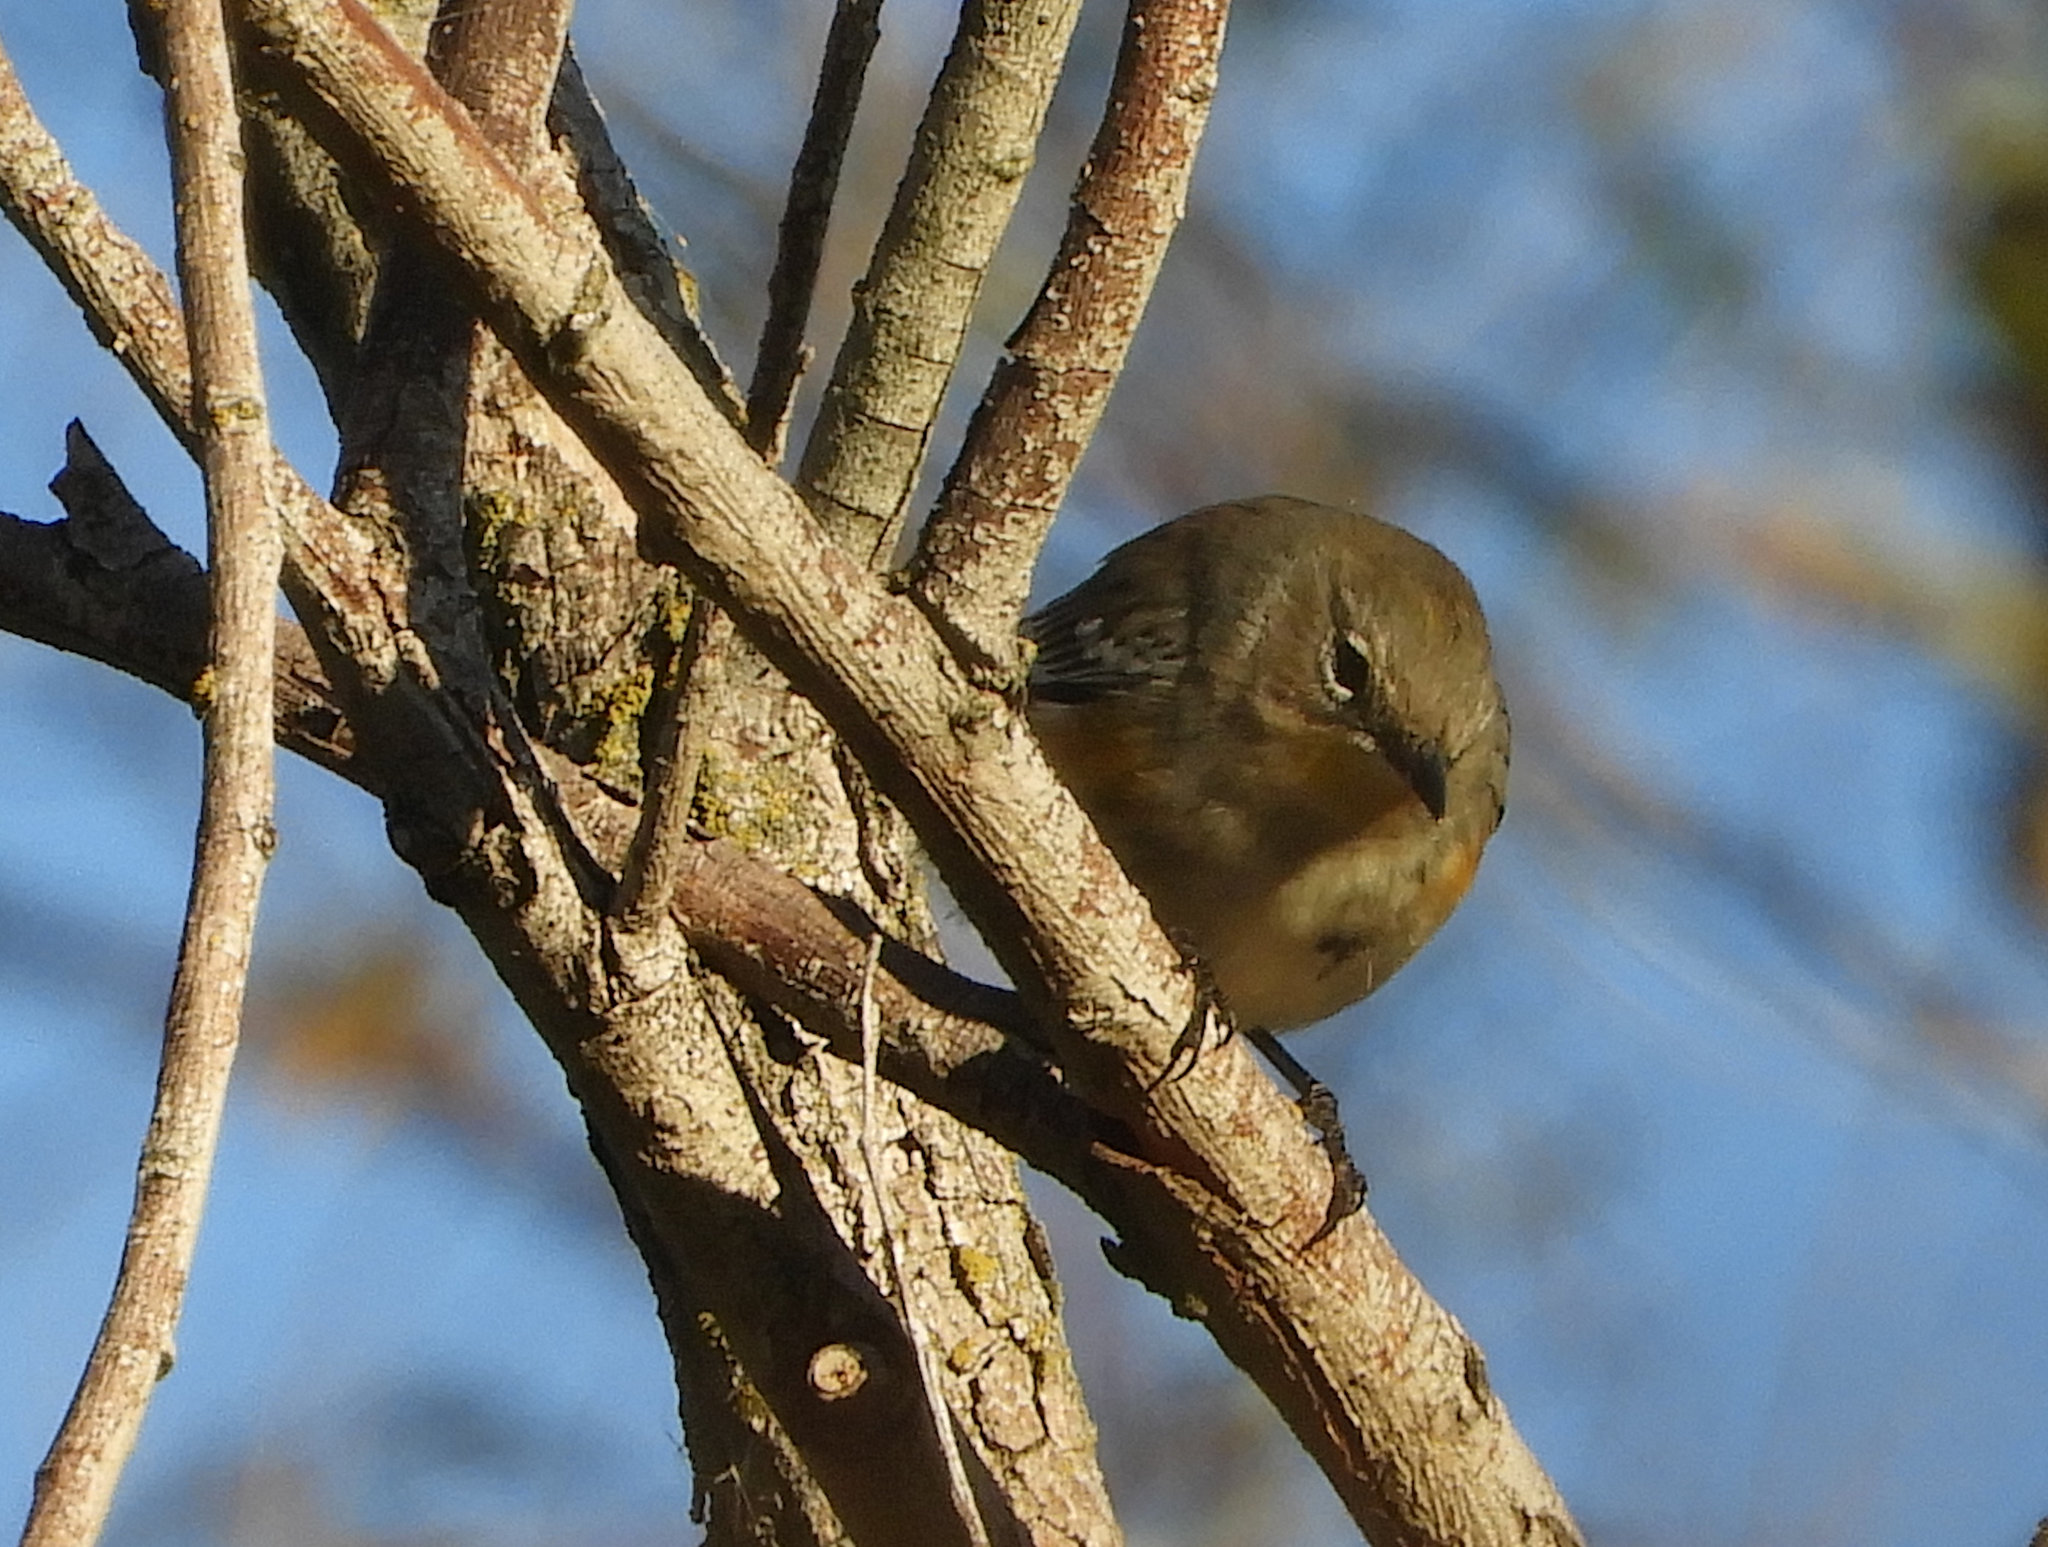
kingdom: Animalia
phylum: Chordata
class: Aves
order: Passeriformes
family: Parulidae
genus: Setophaga
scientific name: Setophaga coronata
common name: Myrtle warbler
